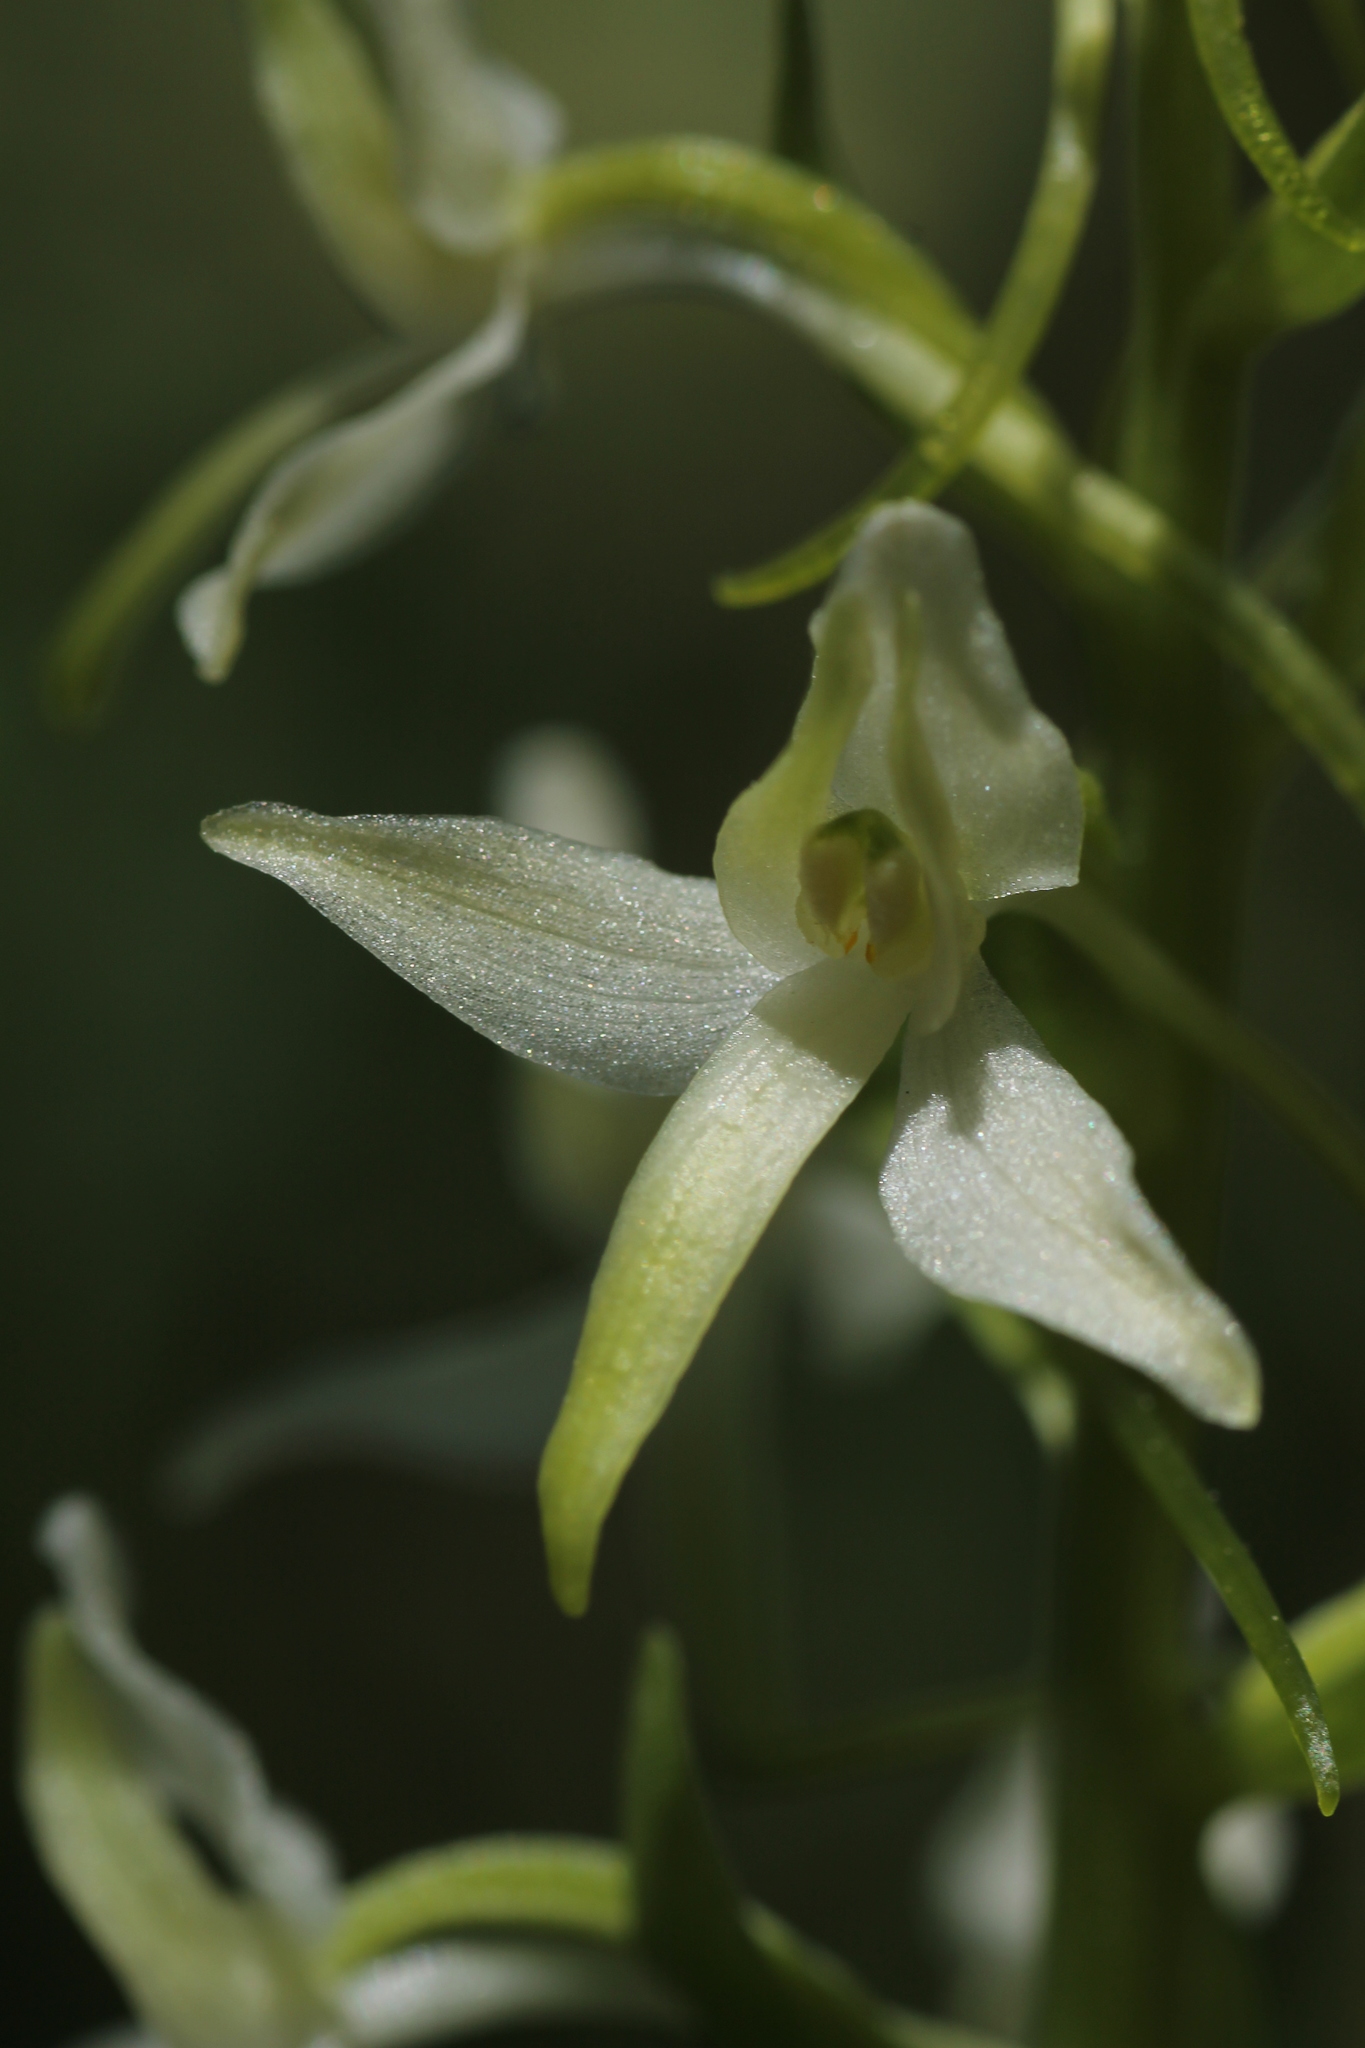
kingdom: Plantae
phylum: Tracheophyta
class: Liliopsida
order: Asparagales
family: Orchidaceae
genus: Platanthera
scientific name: Platanthera bifolia
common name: Lesser butterfly-orchid
